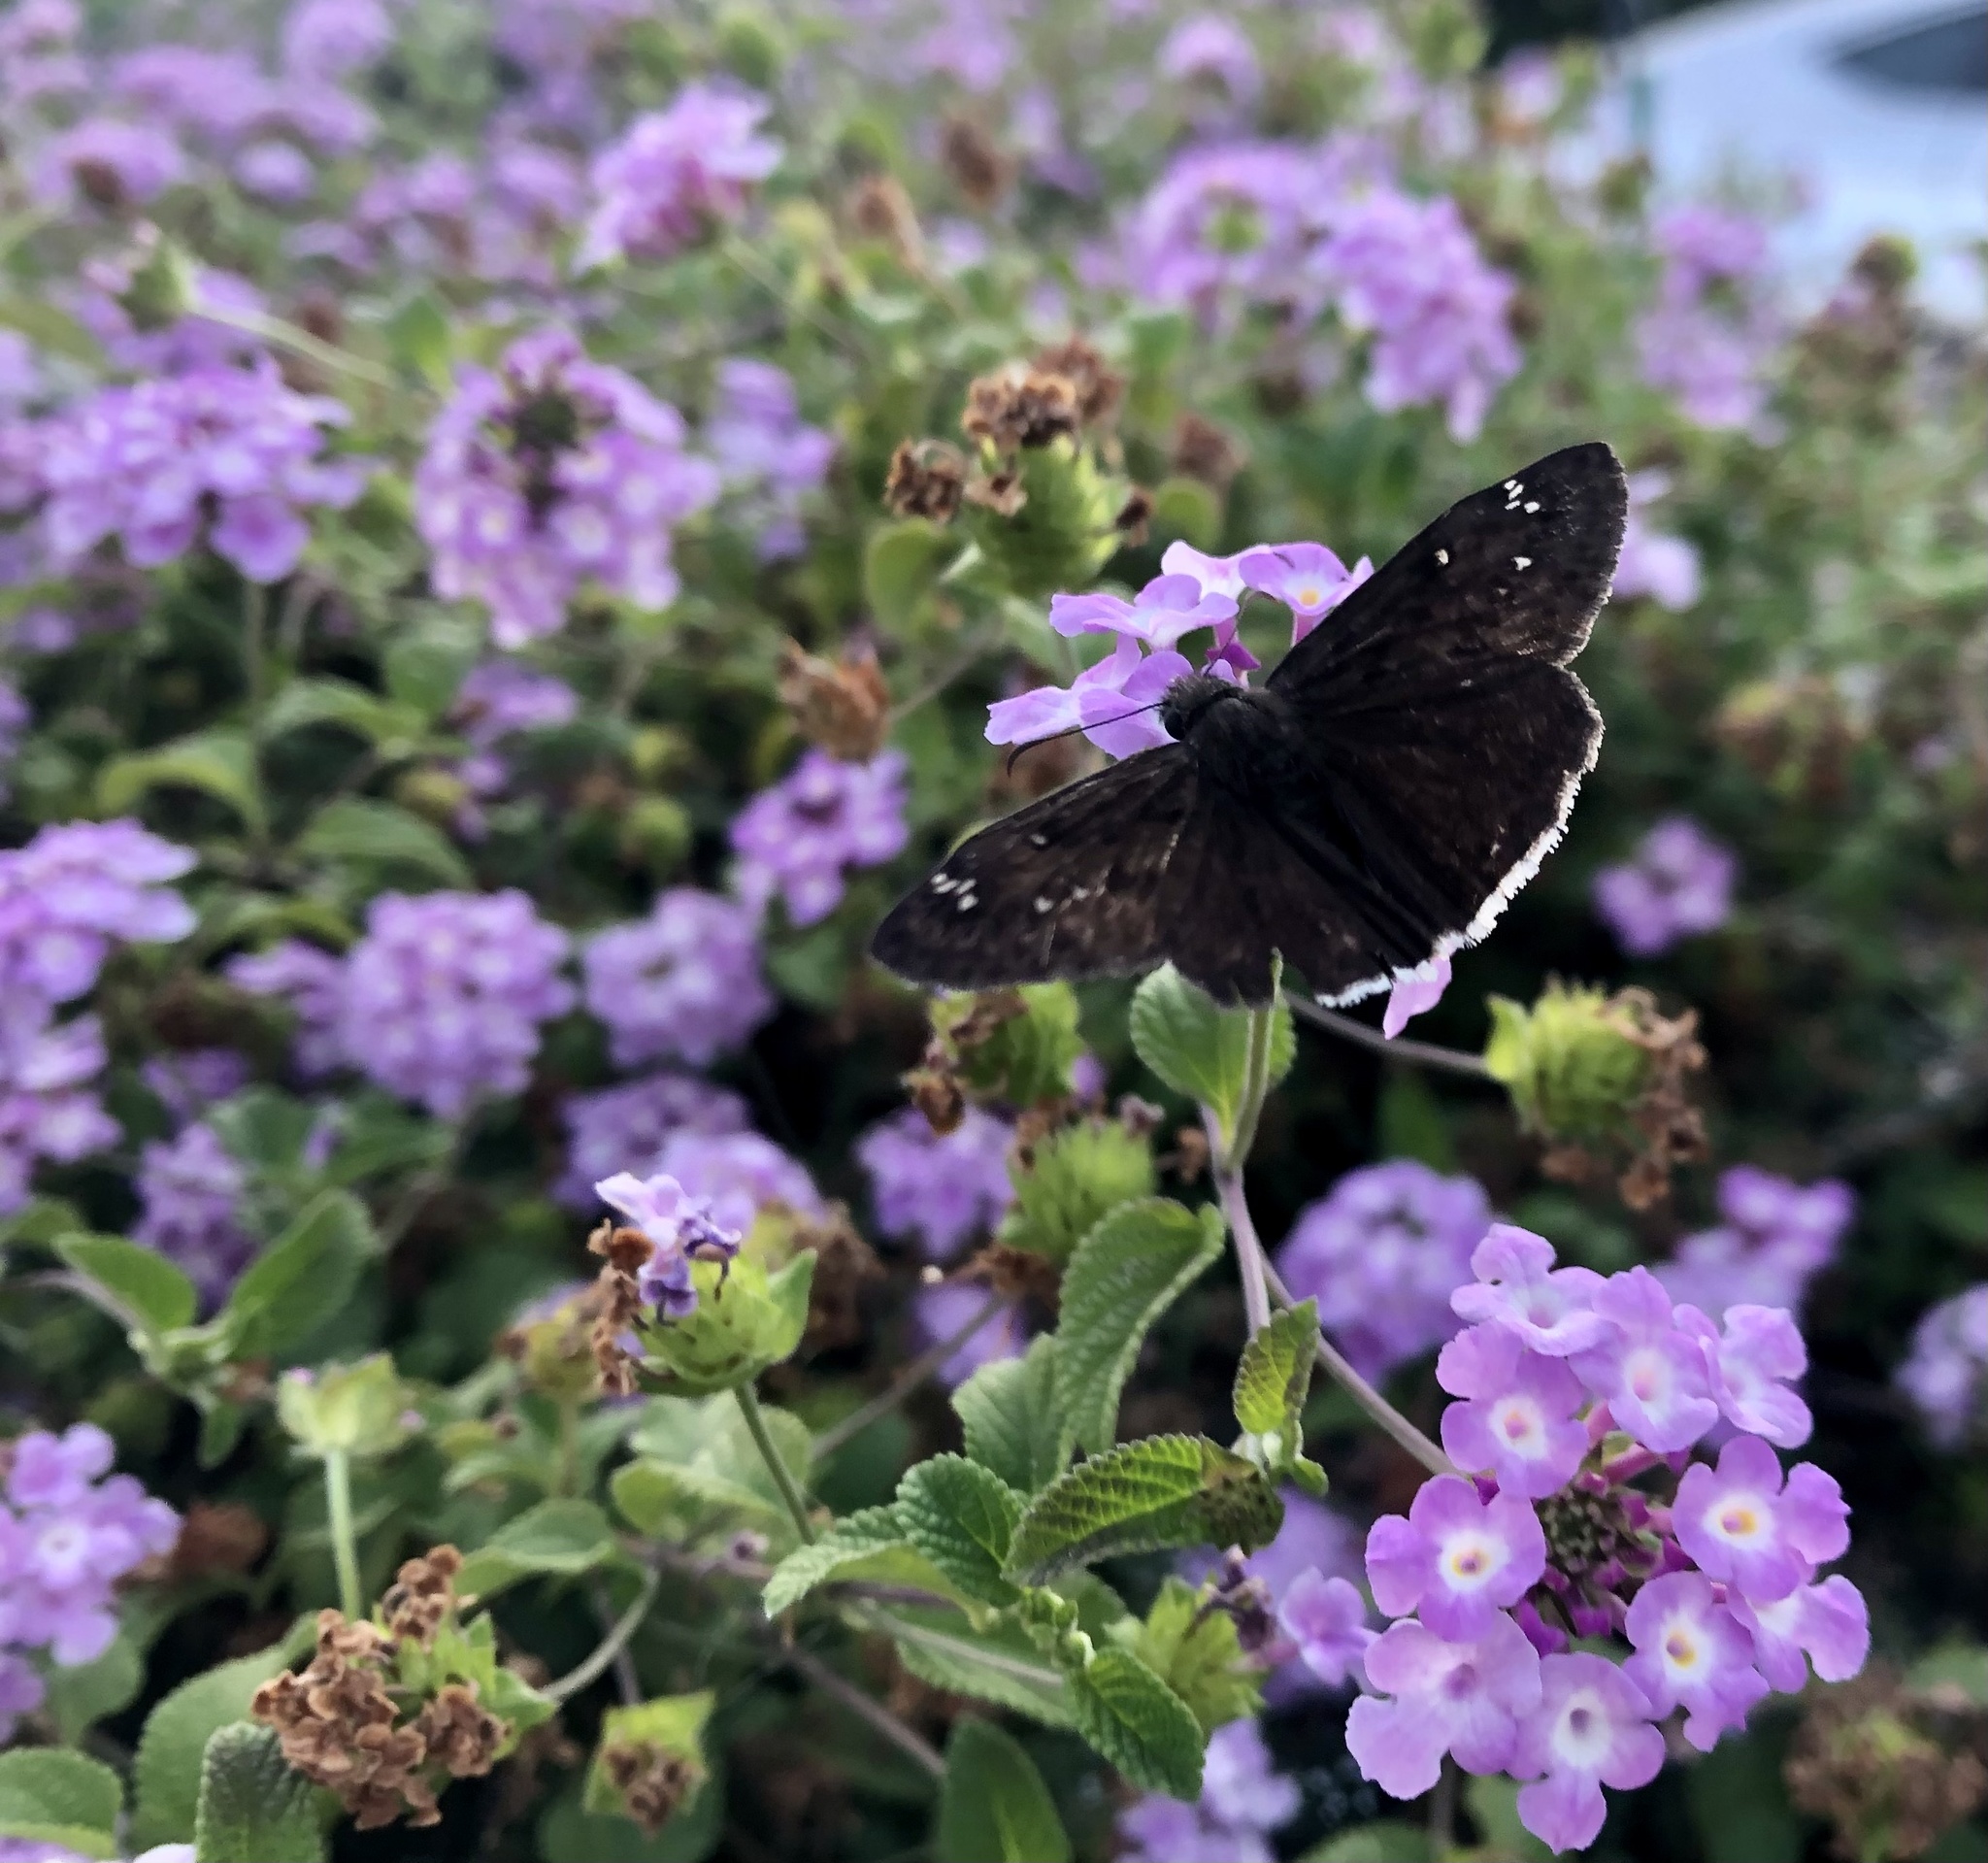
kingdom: Animalia
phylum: Arthropoda
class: Insecta
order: Lepidoptera
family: Hesperiidae
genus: Erynnis
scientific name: Erynnis tristis
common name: Mournful duskywing
